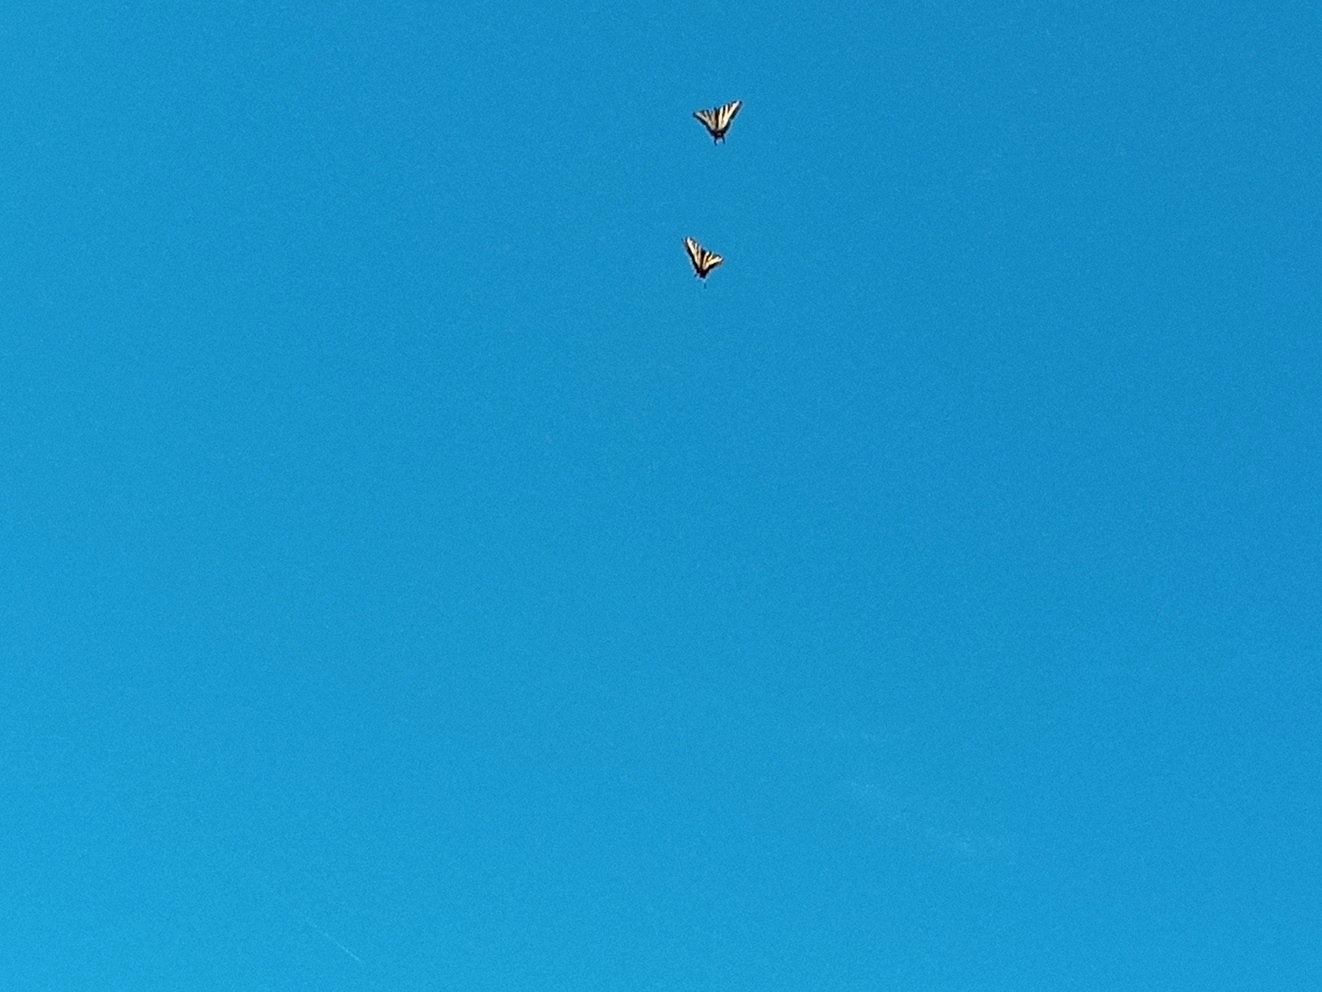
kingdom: Animalia
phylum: Arthropoda
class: Insecta
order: Lepidoptera
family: Papilionidae
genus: Papilio
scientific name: Papilio eurymedon
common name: Pale tiger swallowtail
